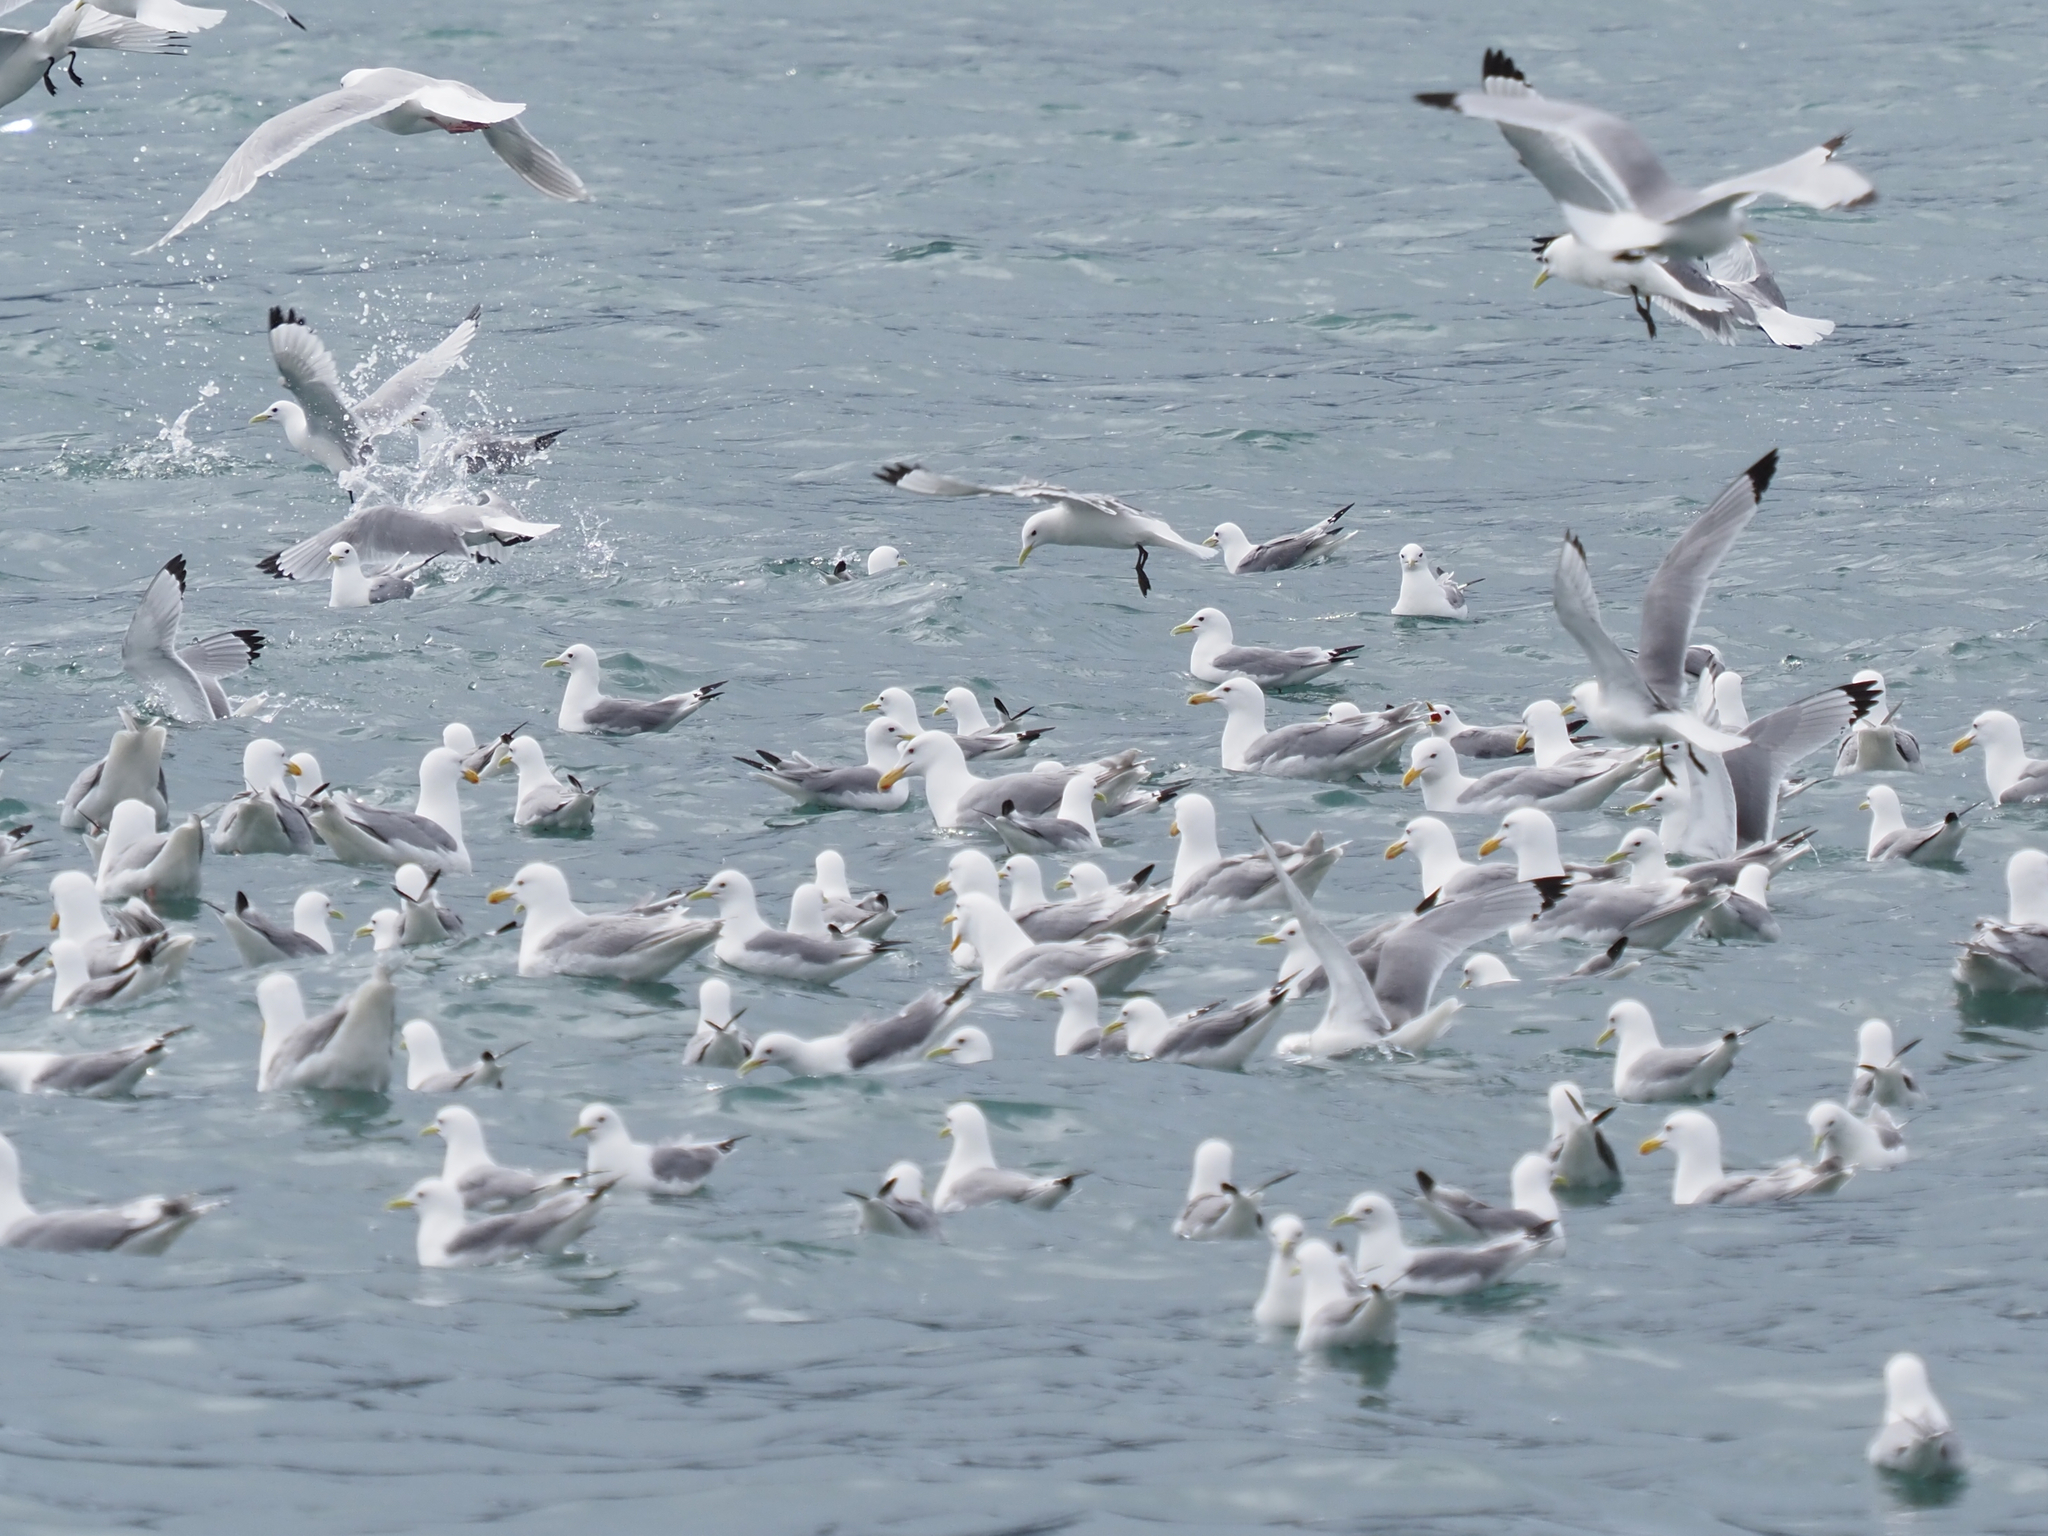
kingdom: Animalia
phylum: Chordata
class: Aves
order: Charadriiformes
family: Laridae
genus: Rissa
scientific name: Rissa tridactyla
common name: Black-legged kittiwake
